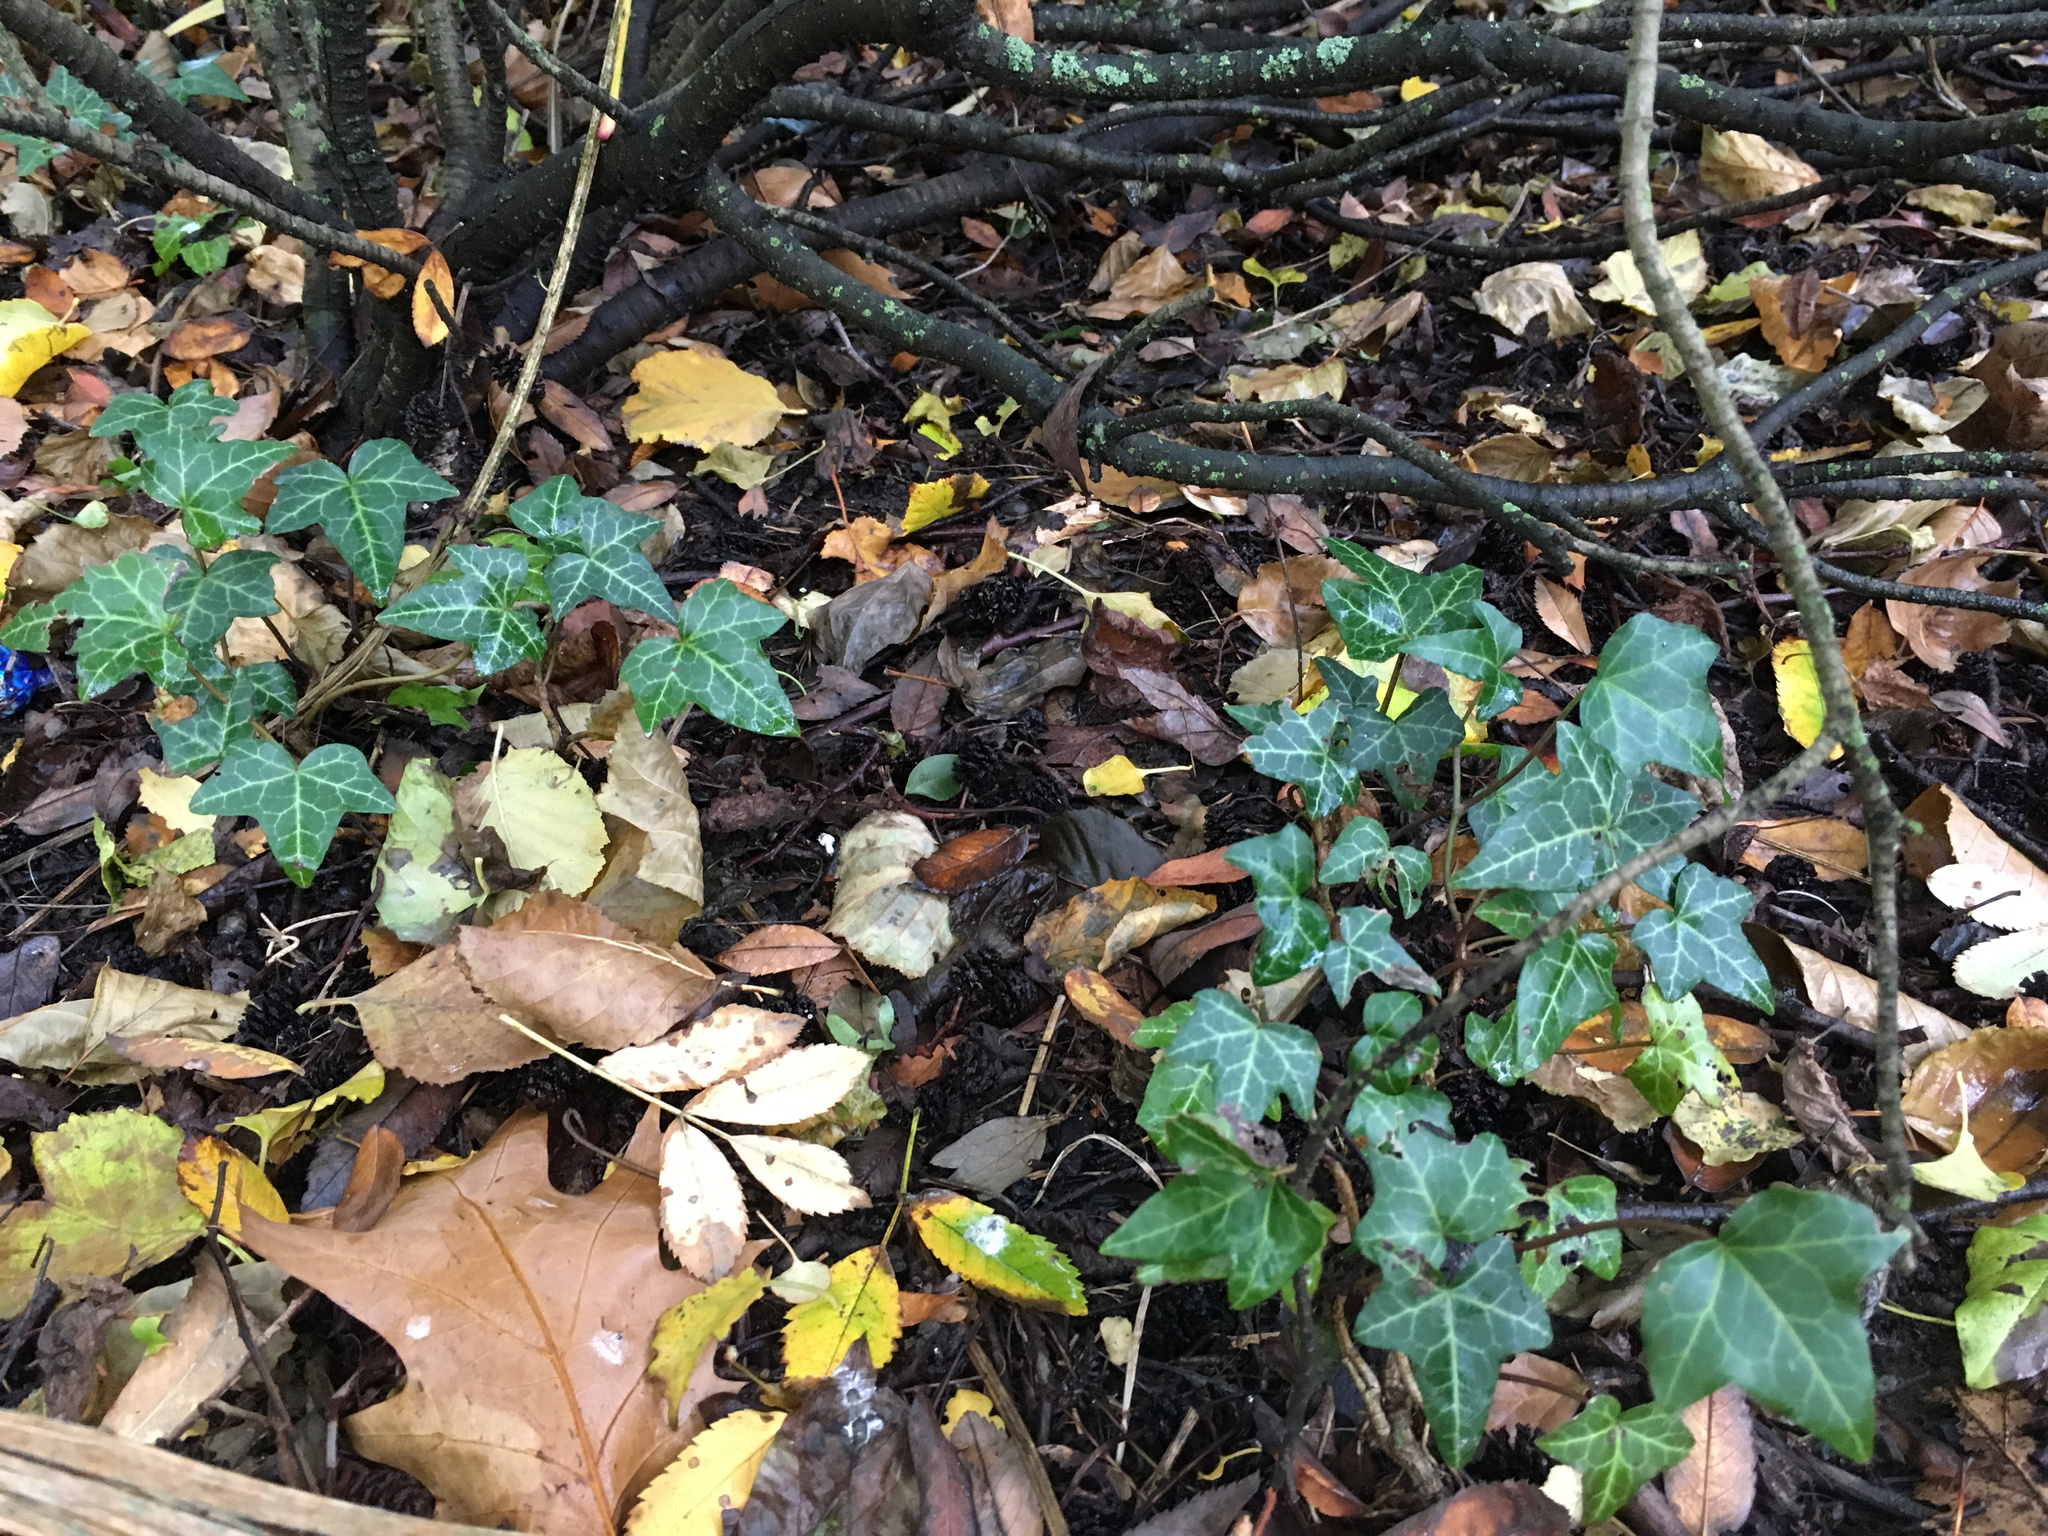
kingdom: Plantae
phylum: Tracheophyta
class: Magnoliopsida
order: Apiales
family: Araliaceae
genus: Hedera
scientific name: Hedera helix
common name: Ivy
